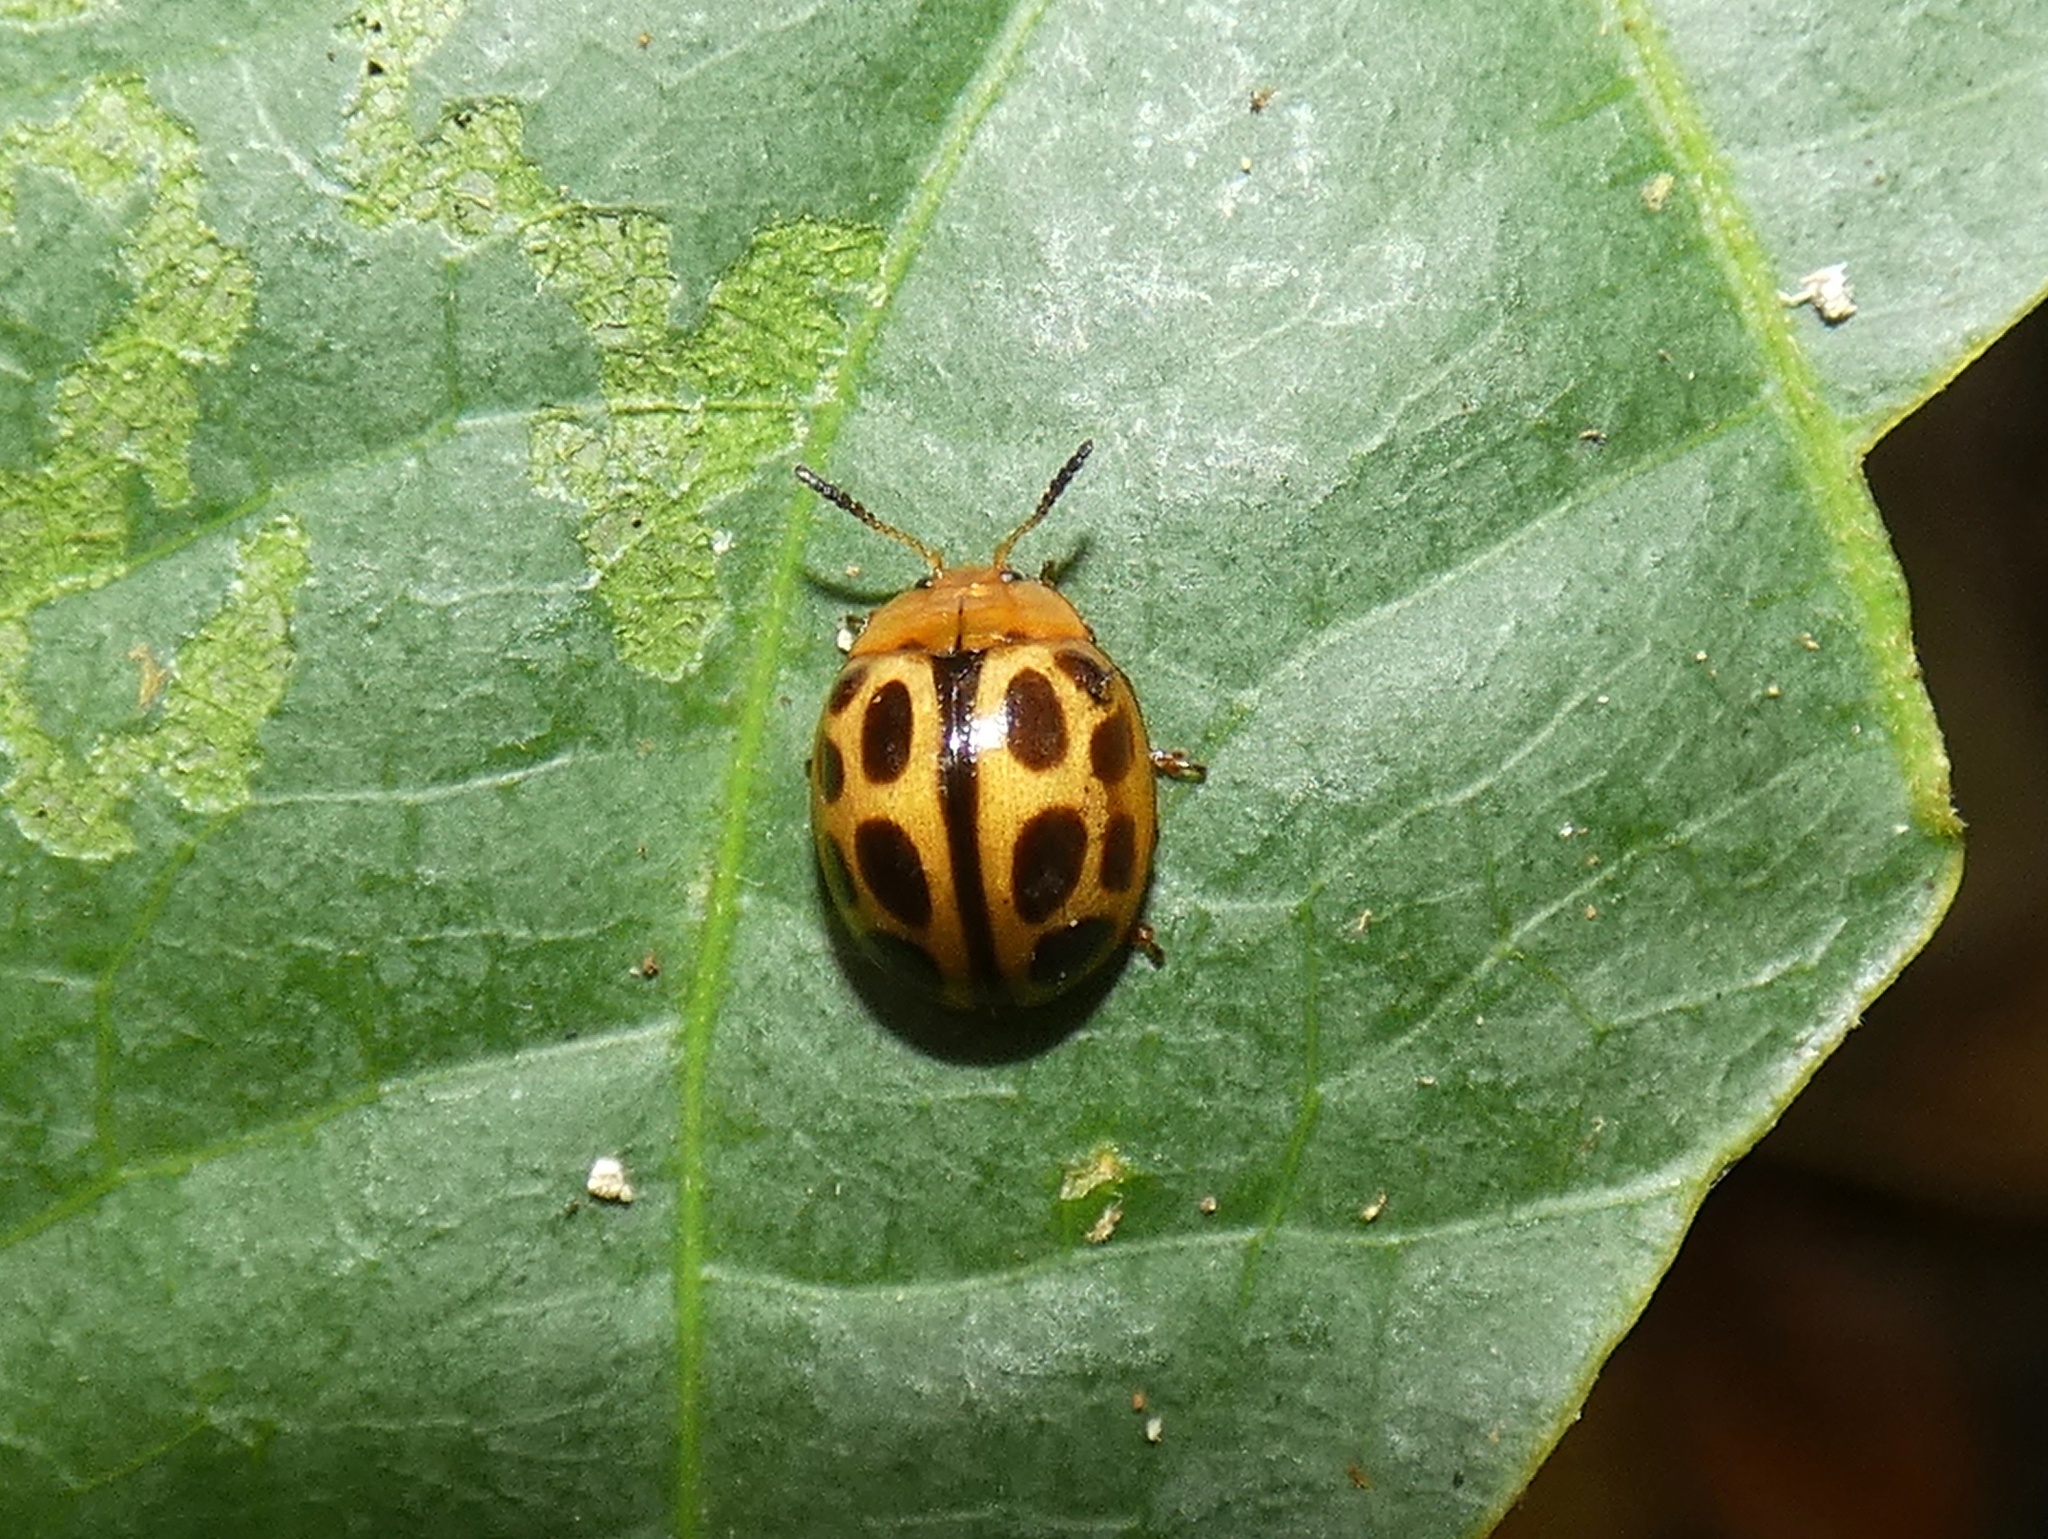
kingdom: Animalia
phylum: Arthropoda
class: Insecta
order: Coleoptera
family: Chrysomelidae
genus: Plagiodera
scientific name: Plagiodera
